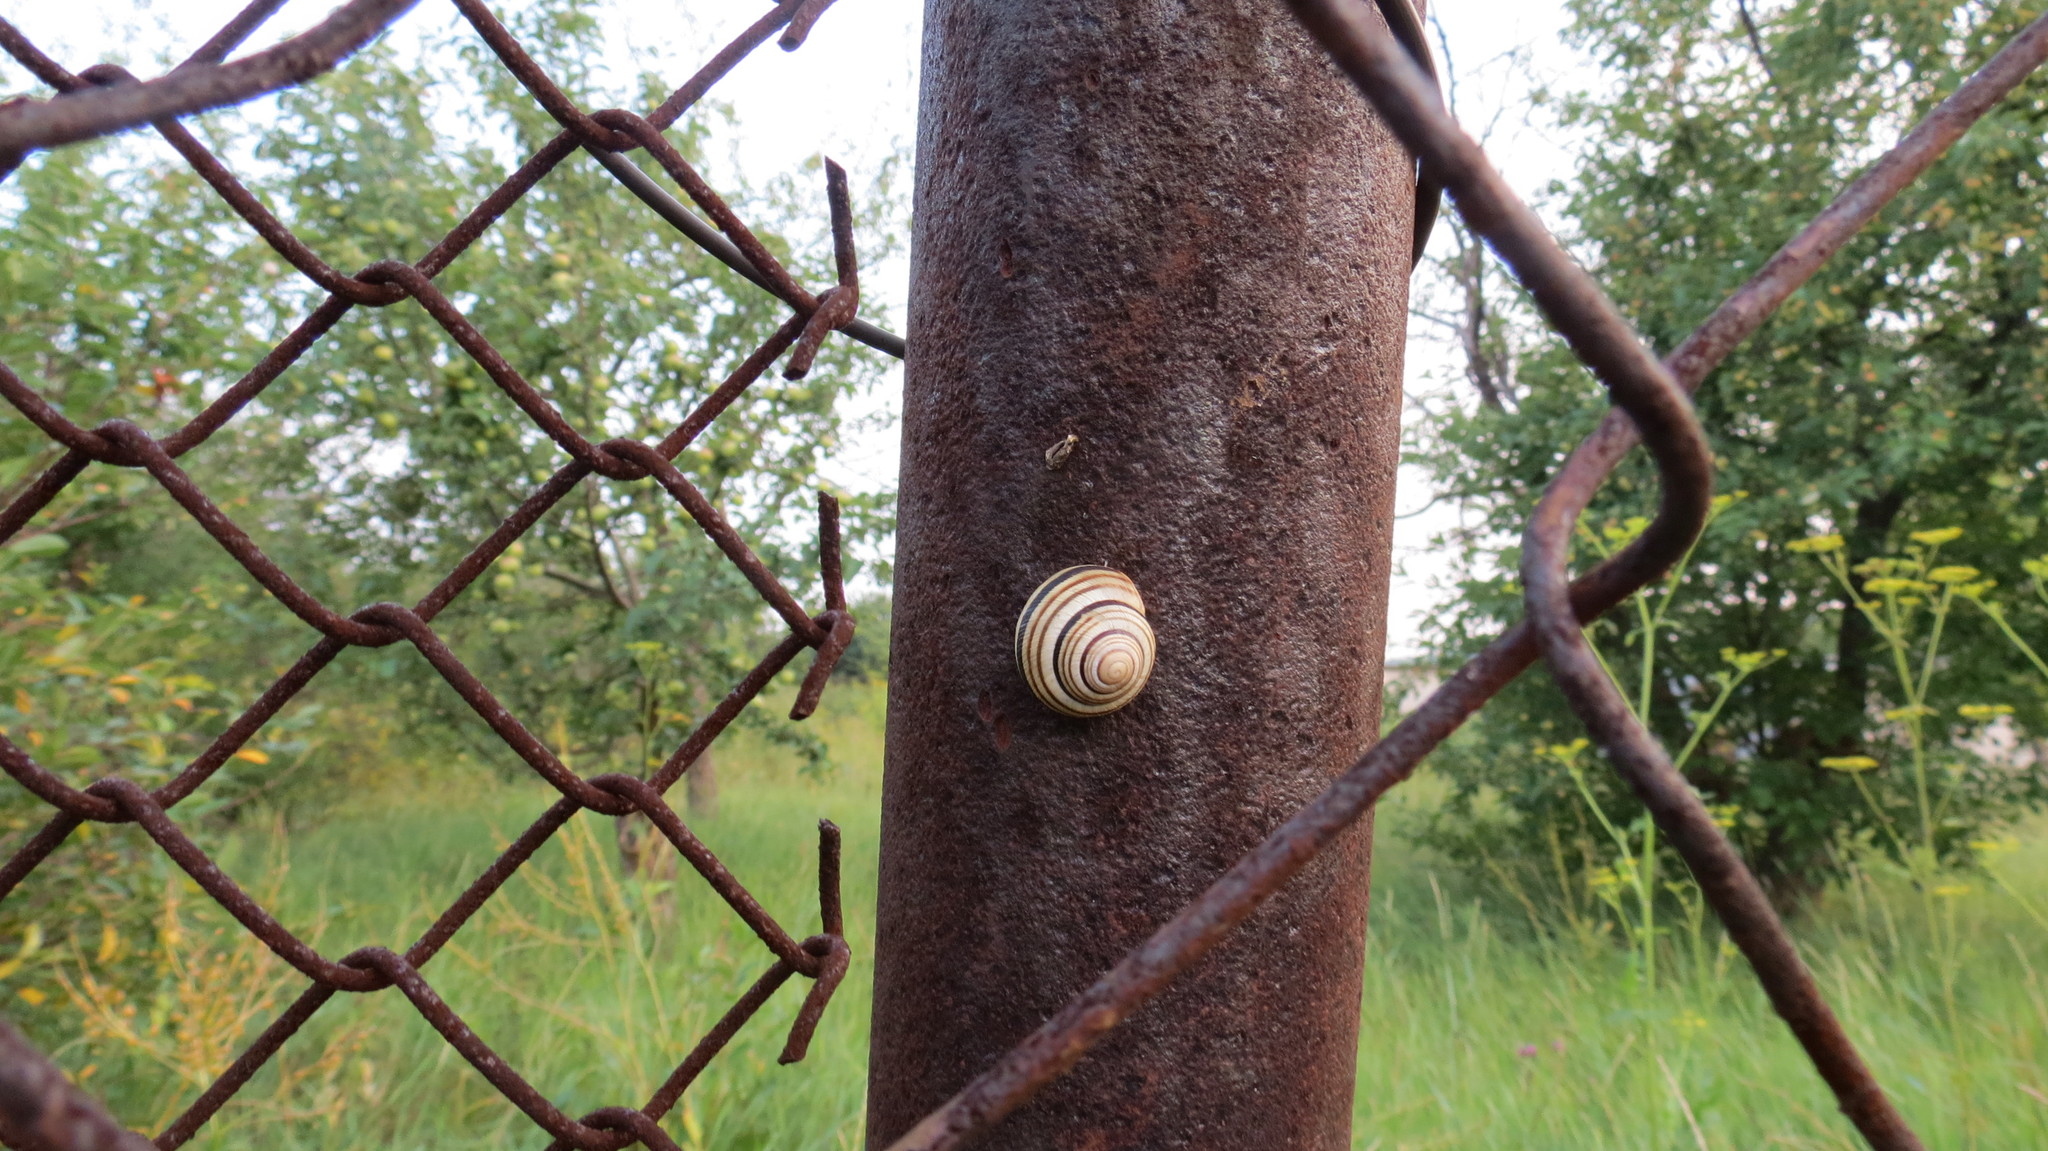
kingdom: Animalia
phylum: Mollusca
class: Gastropoda
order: Stylommatophora
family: Helicidae
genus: Caucasotachea
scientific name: Caucasotachea vindobonensis
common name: European helicid land snail
